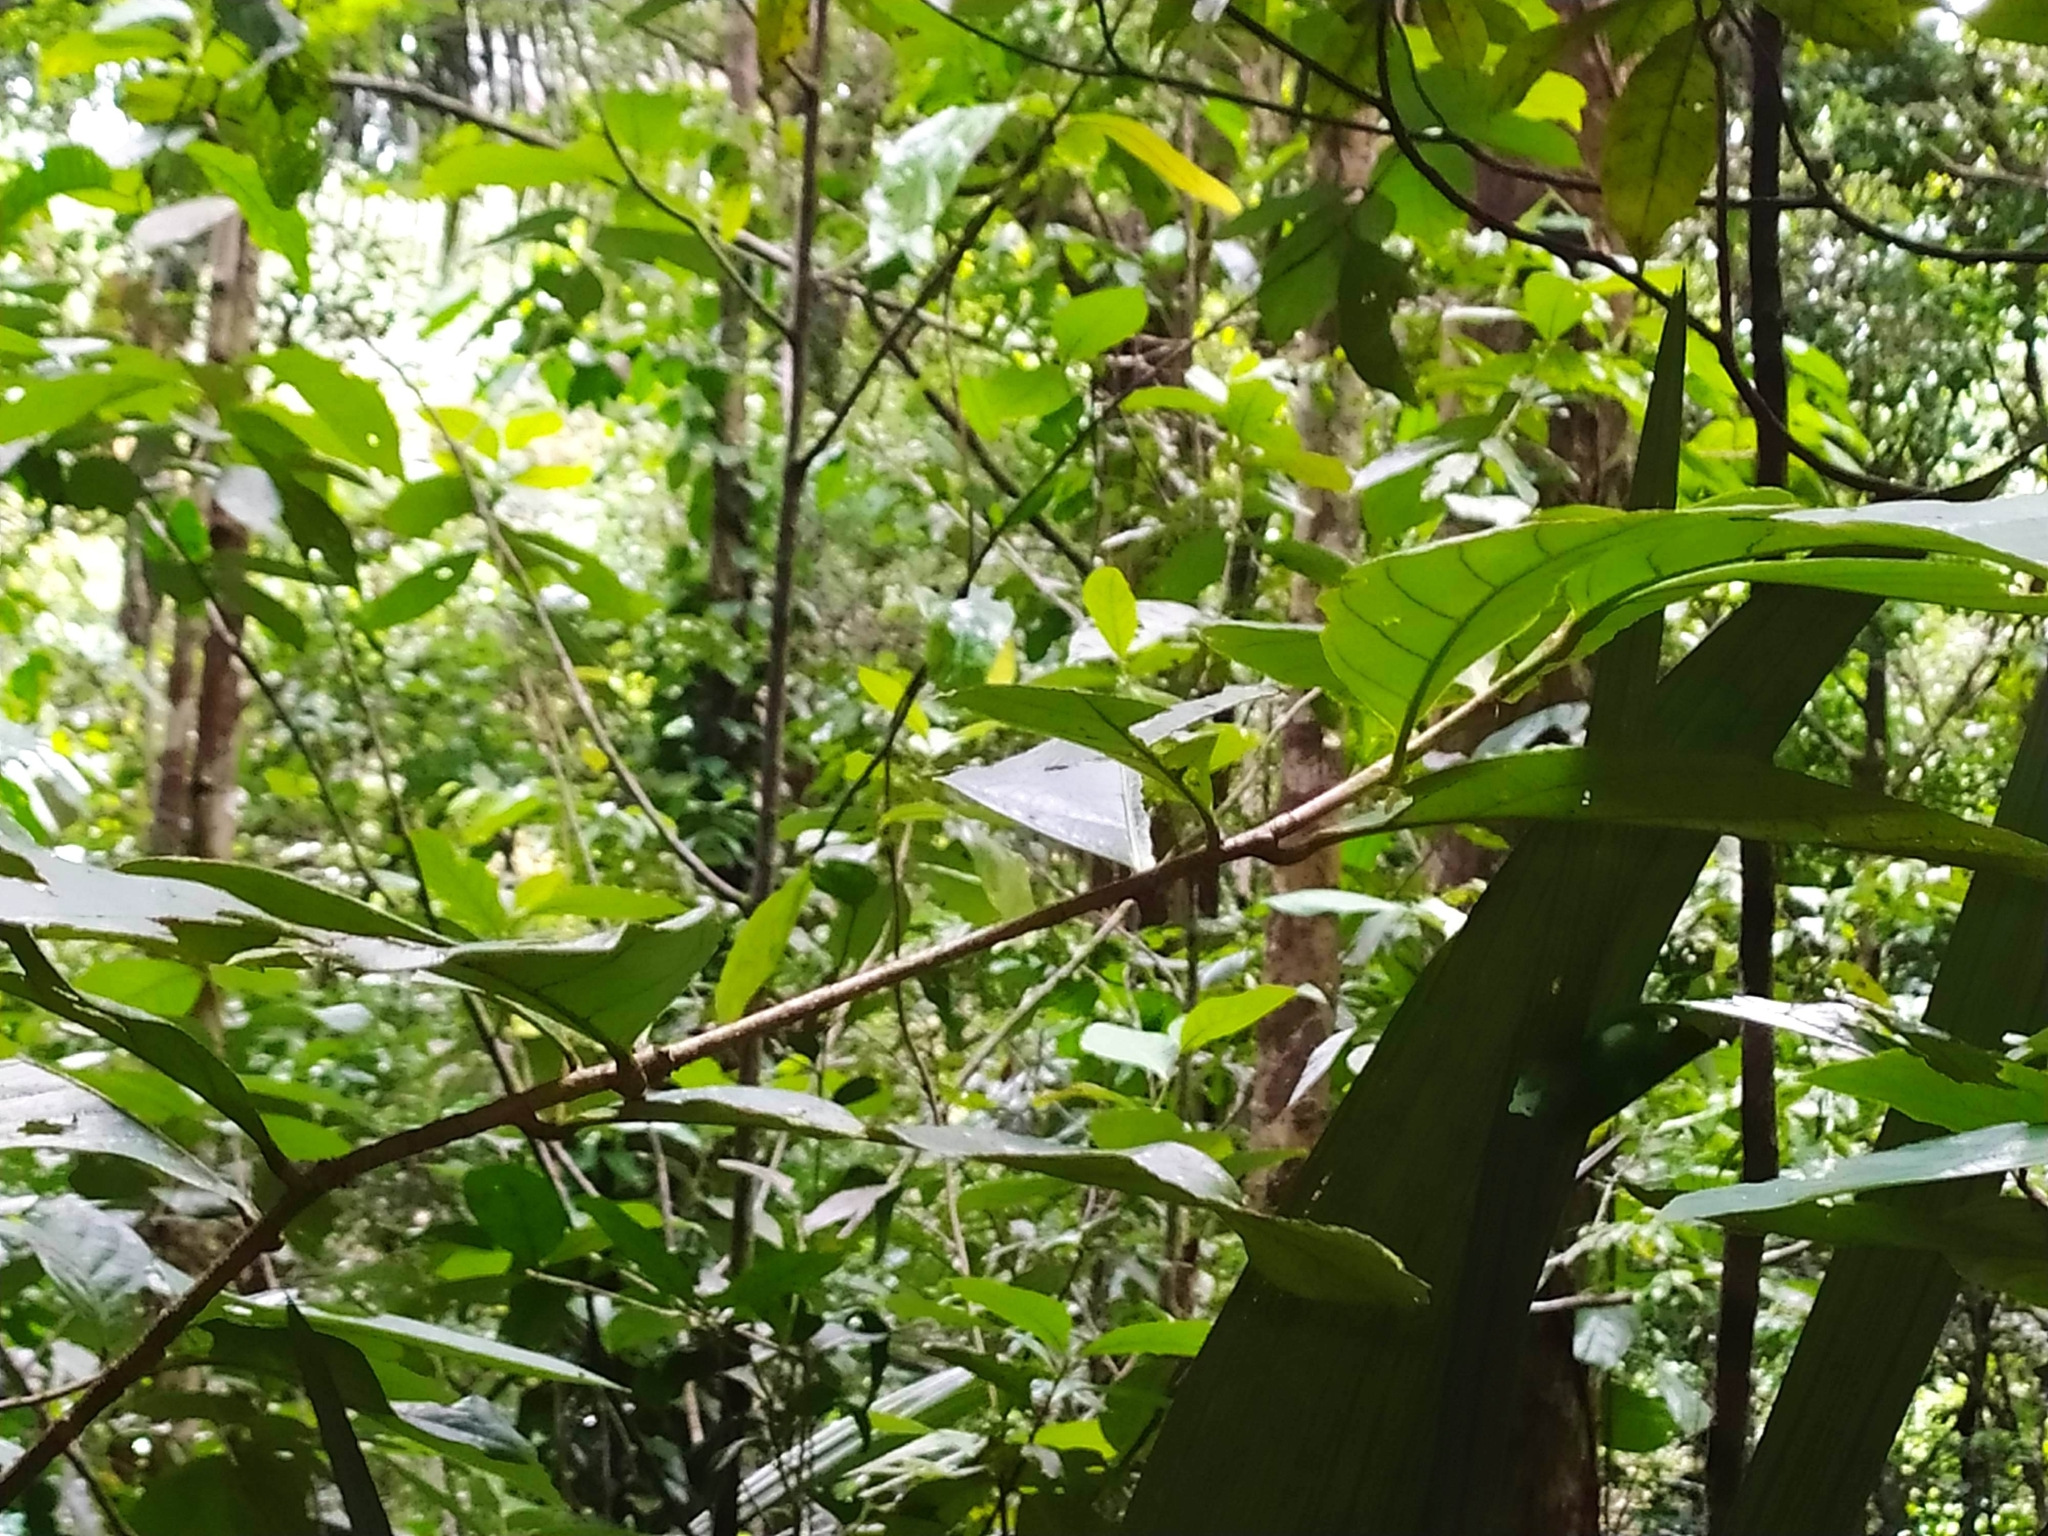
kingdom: Plantae
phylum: Tracheophyta
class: Magnoliopsida
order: Malpighiales
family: Violaceae
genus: Paypayrola
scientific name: Paypayrola guianensis
